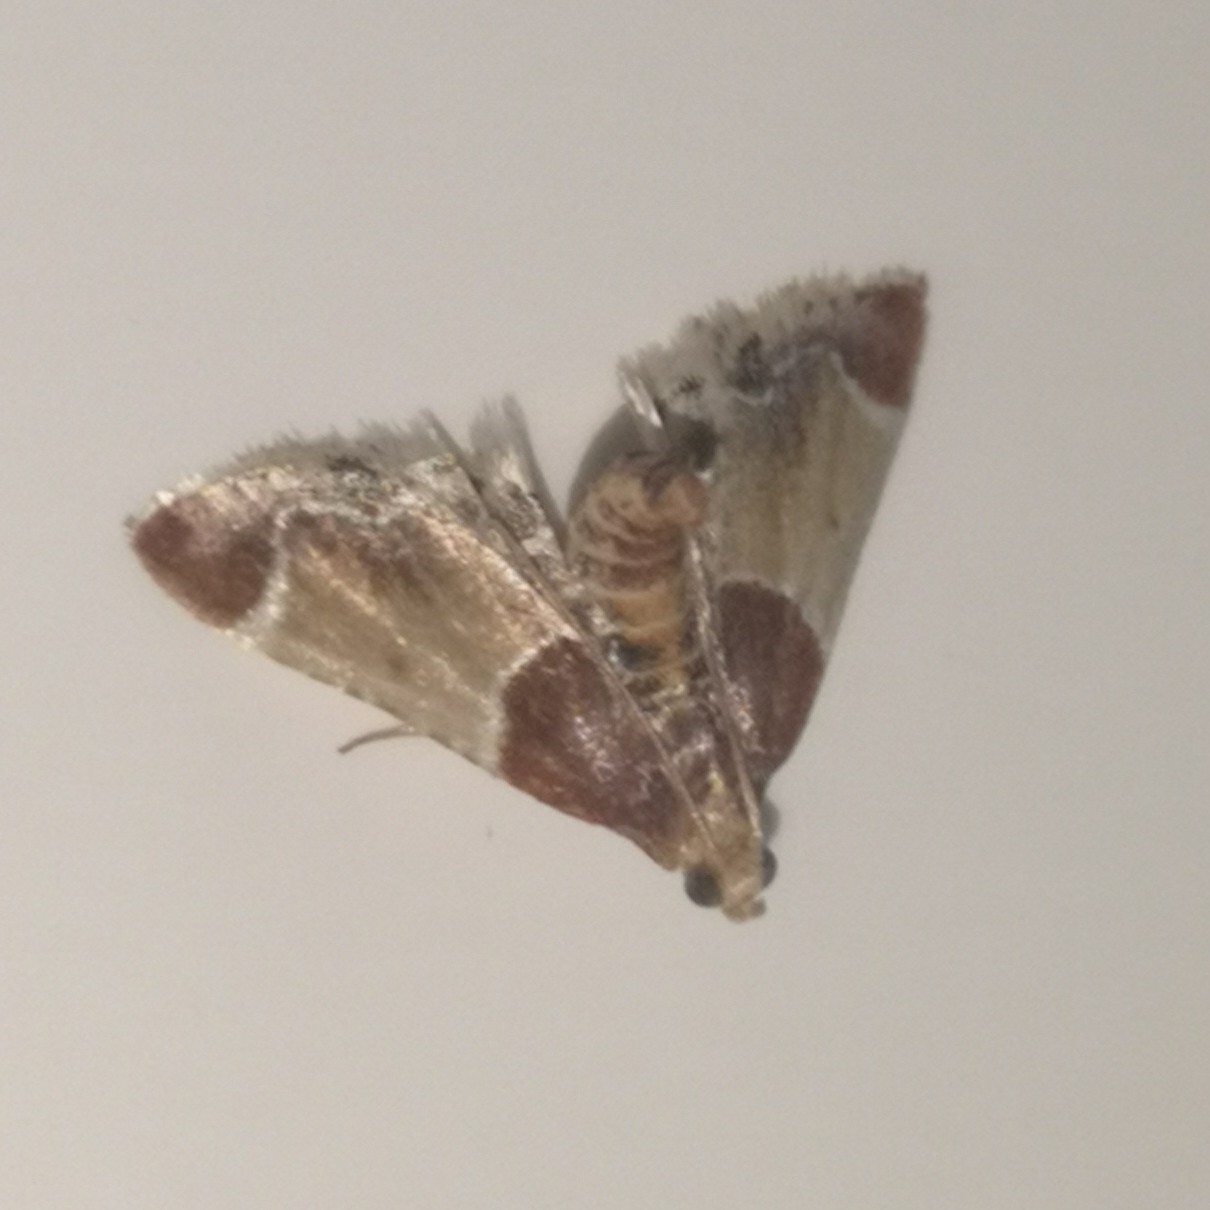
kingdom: Animalia
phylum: Arthropoda
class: Insecta
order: Lepidoptera
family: Pyralidae
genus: Pyralis
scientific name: Pyralis farinalis
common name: Meal moth
